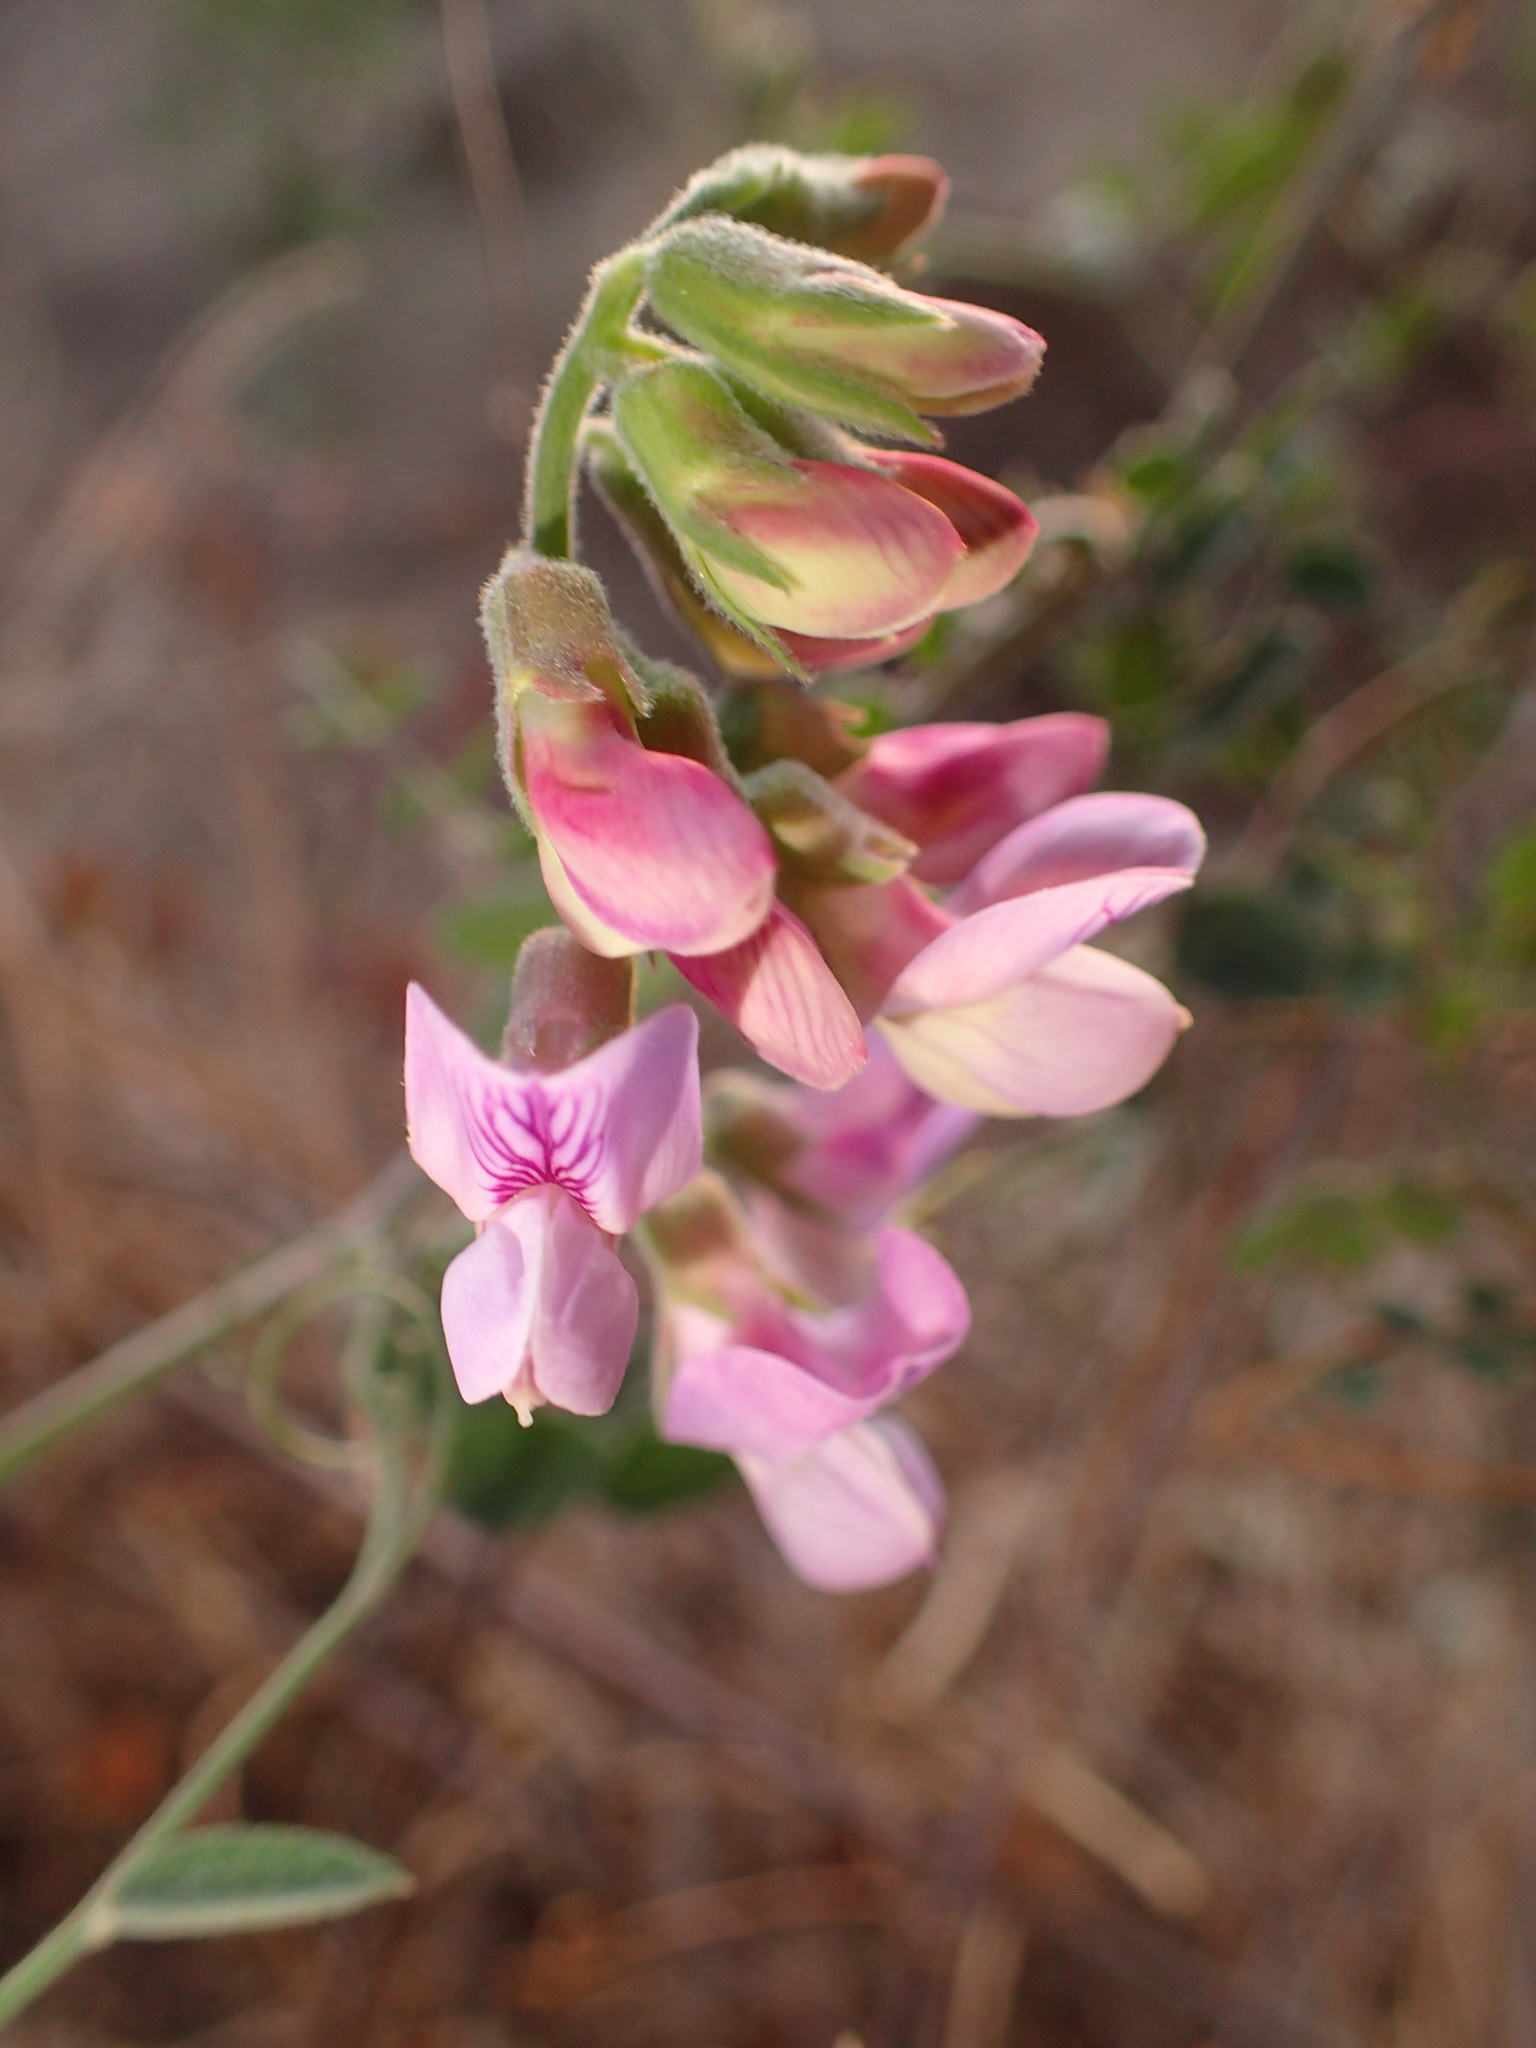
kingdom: Plantae
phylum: Tracheophyta
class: Magnoliopsida
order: Fabales
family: Fabaceae
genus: Lathyrus
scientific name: Lathyrus vestitus
